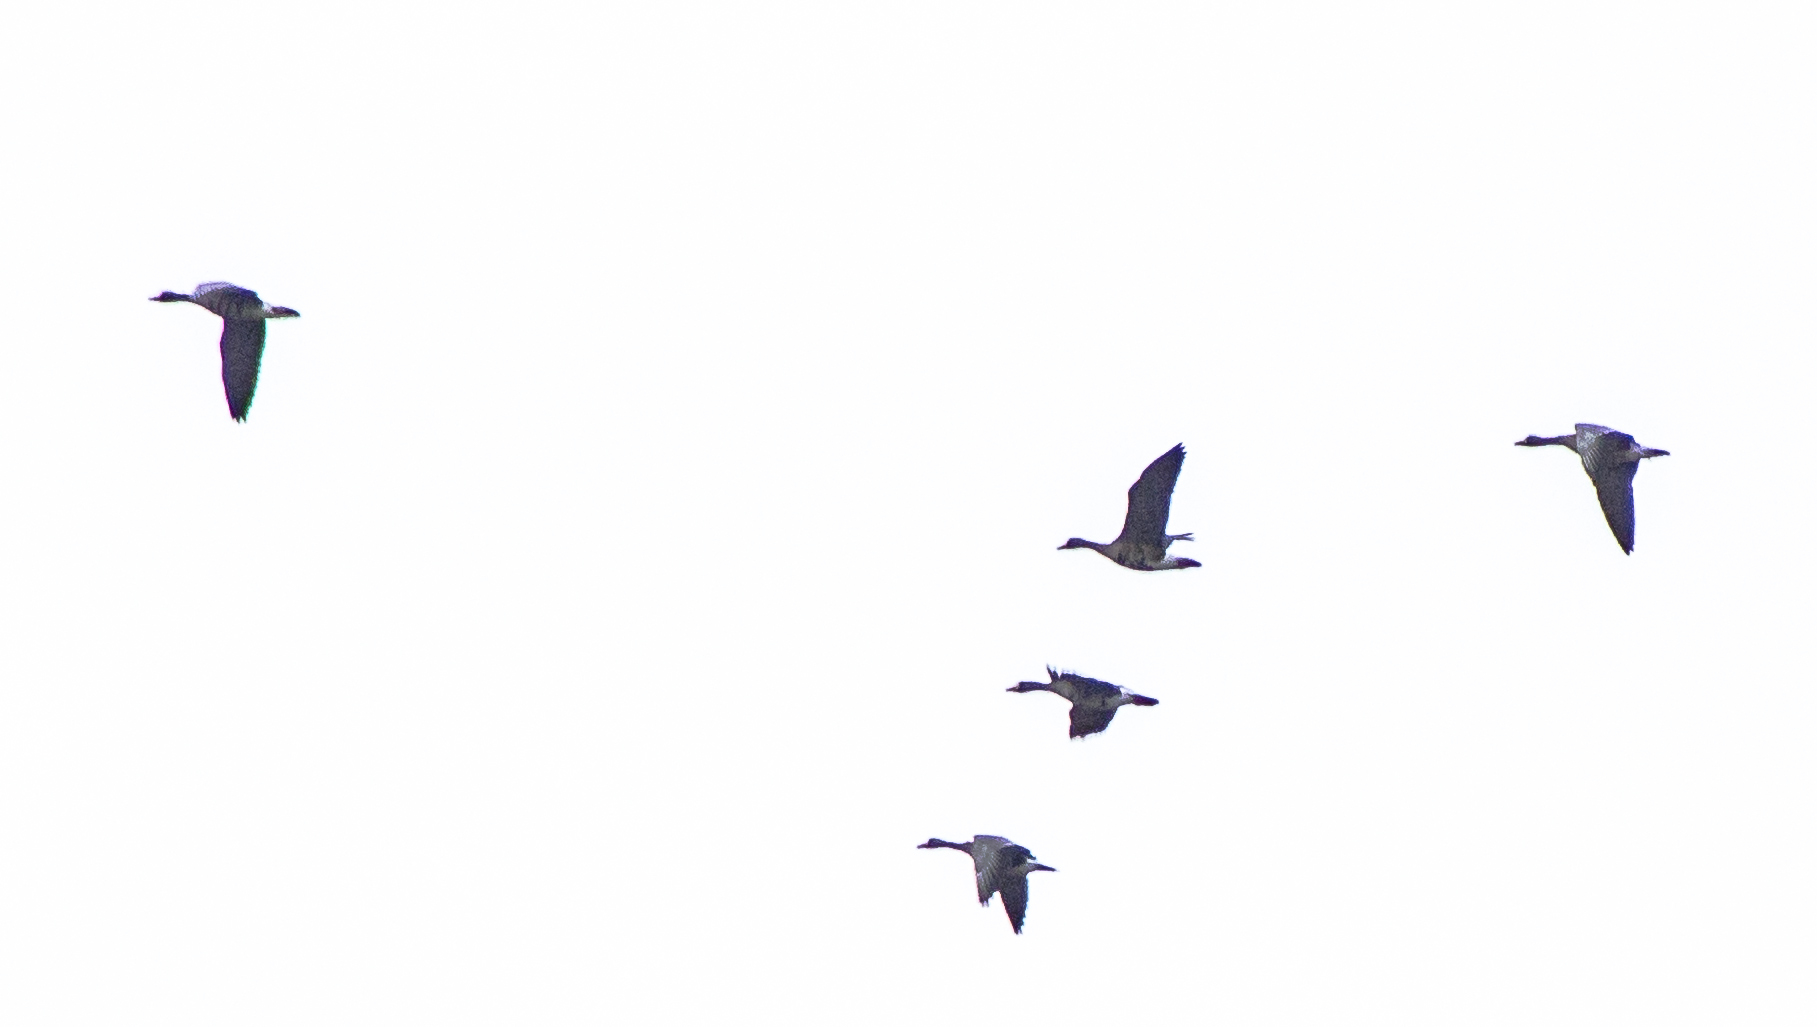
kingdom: Animalia
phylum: Chordata
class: Aves
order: Anseriformes
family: Anatidae
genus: Anser
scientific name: Anser albifrons
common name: Greater white-fronted goose
